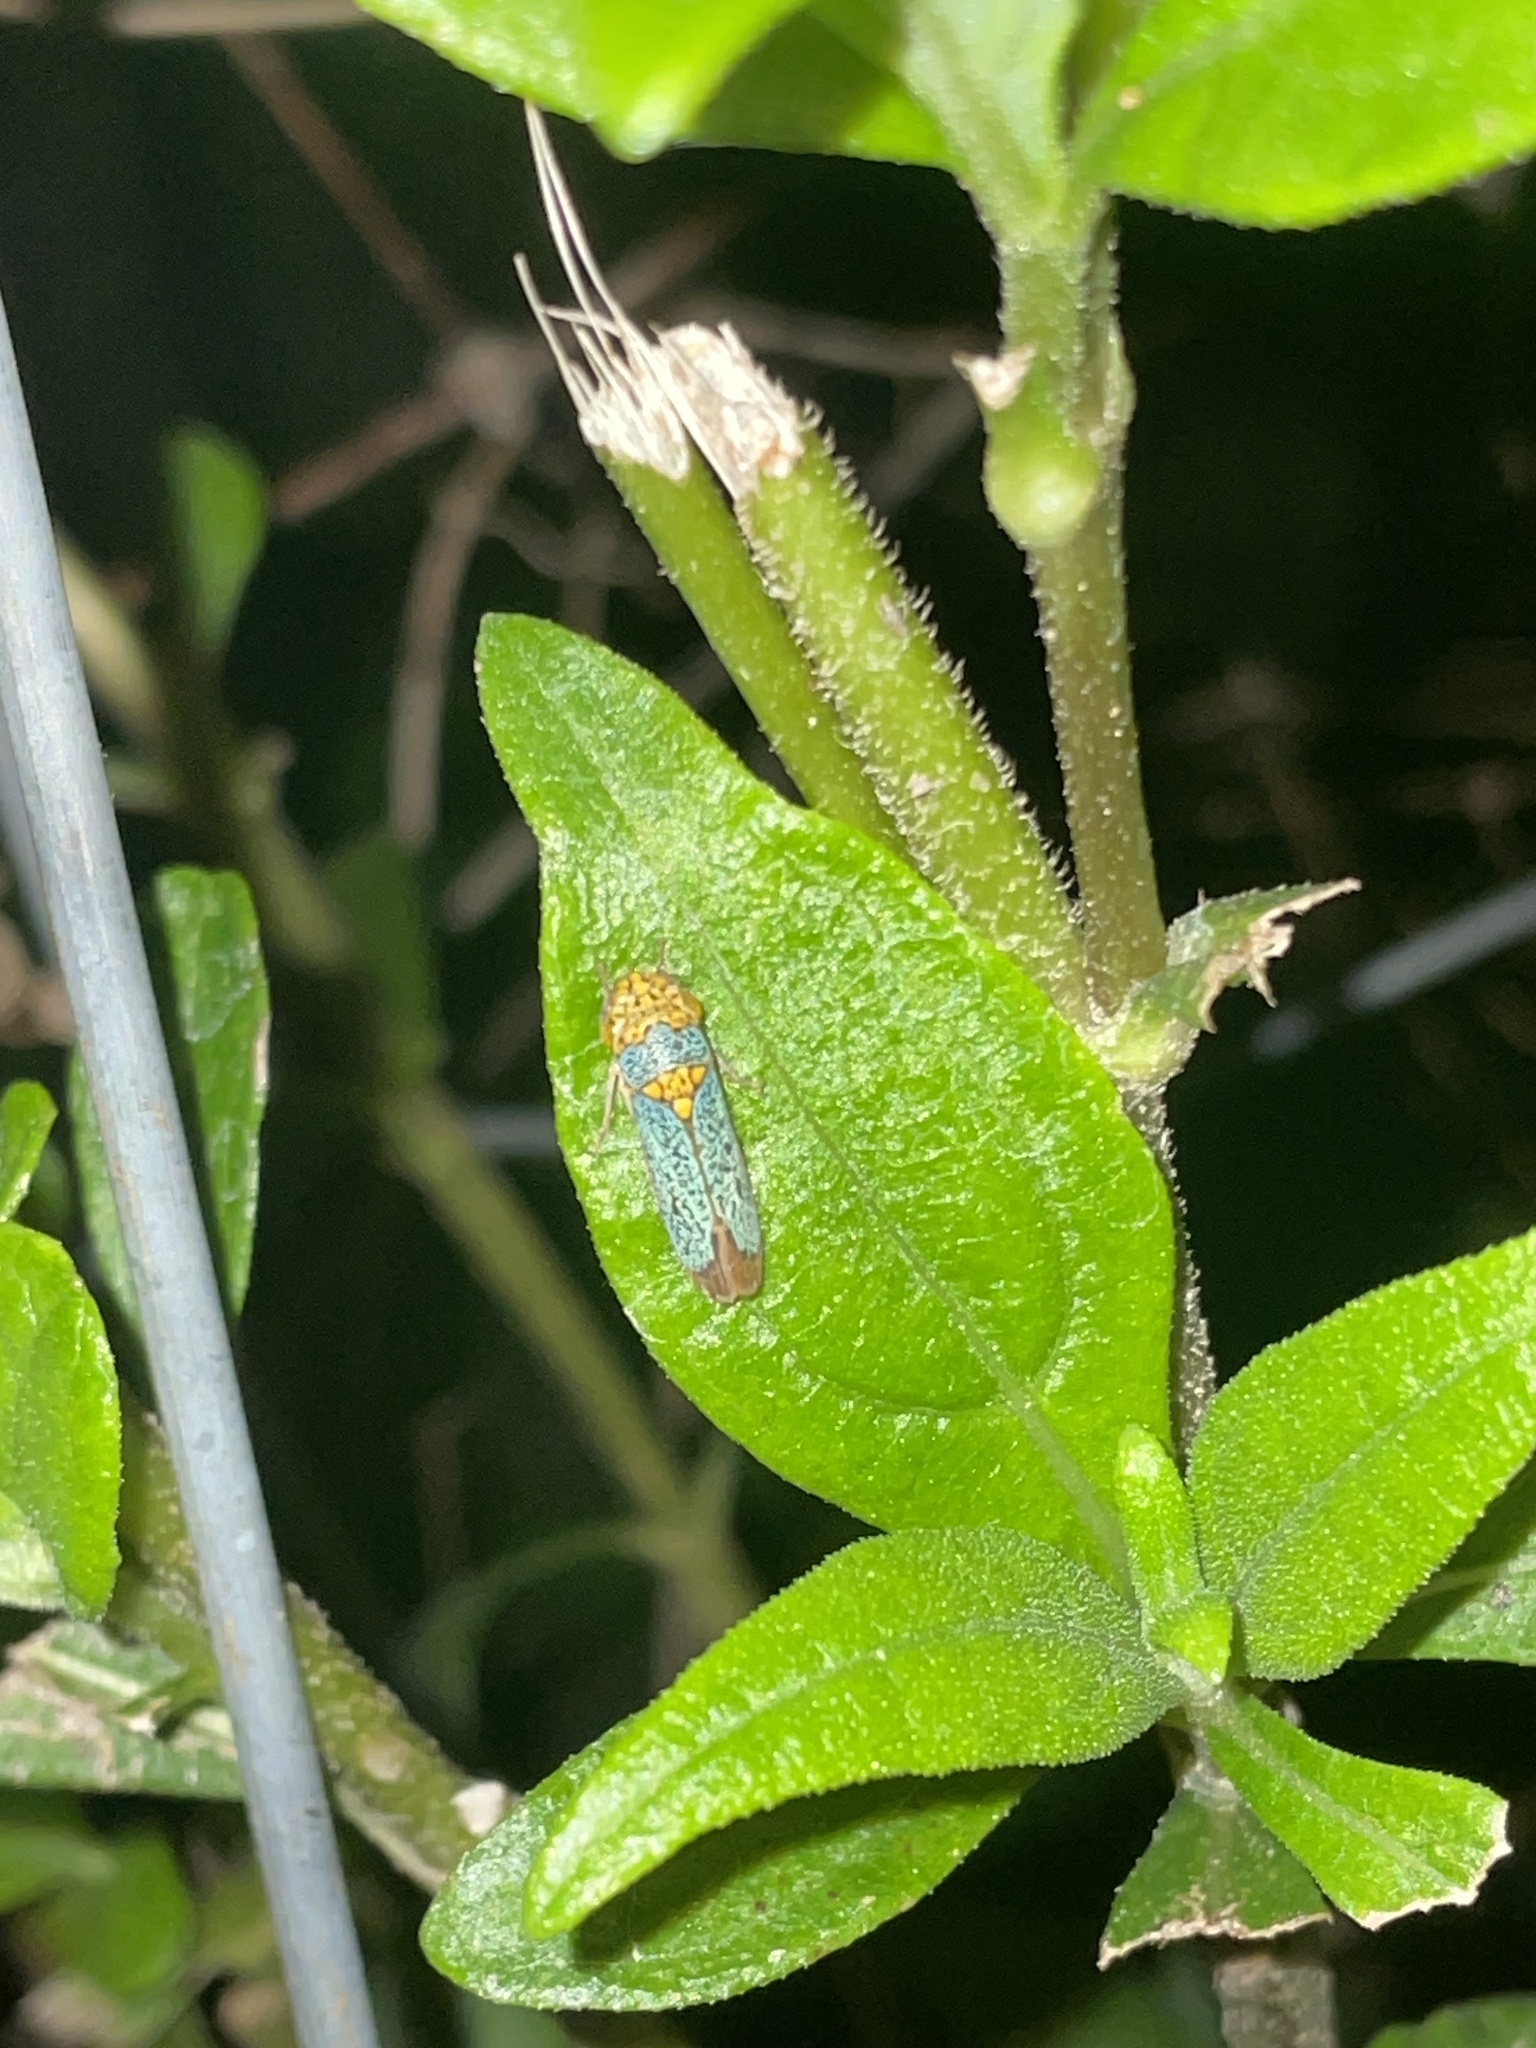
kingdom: Animalia
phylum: Arthropoda
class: Insecta
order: Hemiptera
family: Cicadellidae
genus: Oncometopia
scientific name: Oncometopia orbona
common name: Broad-headed sharpshooter
